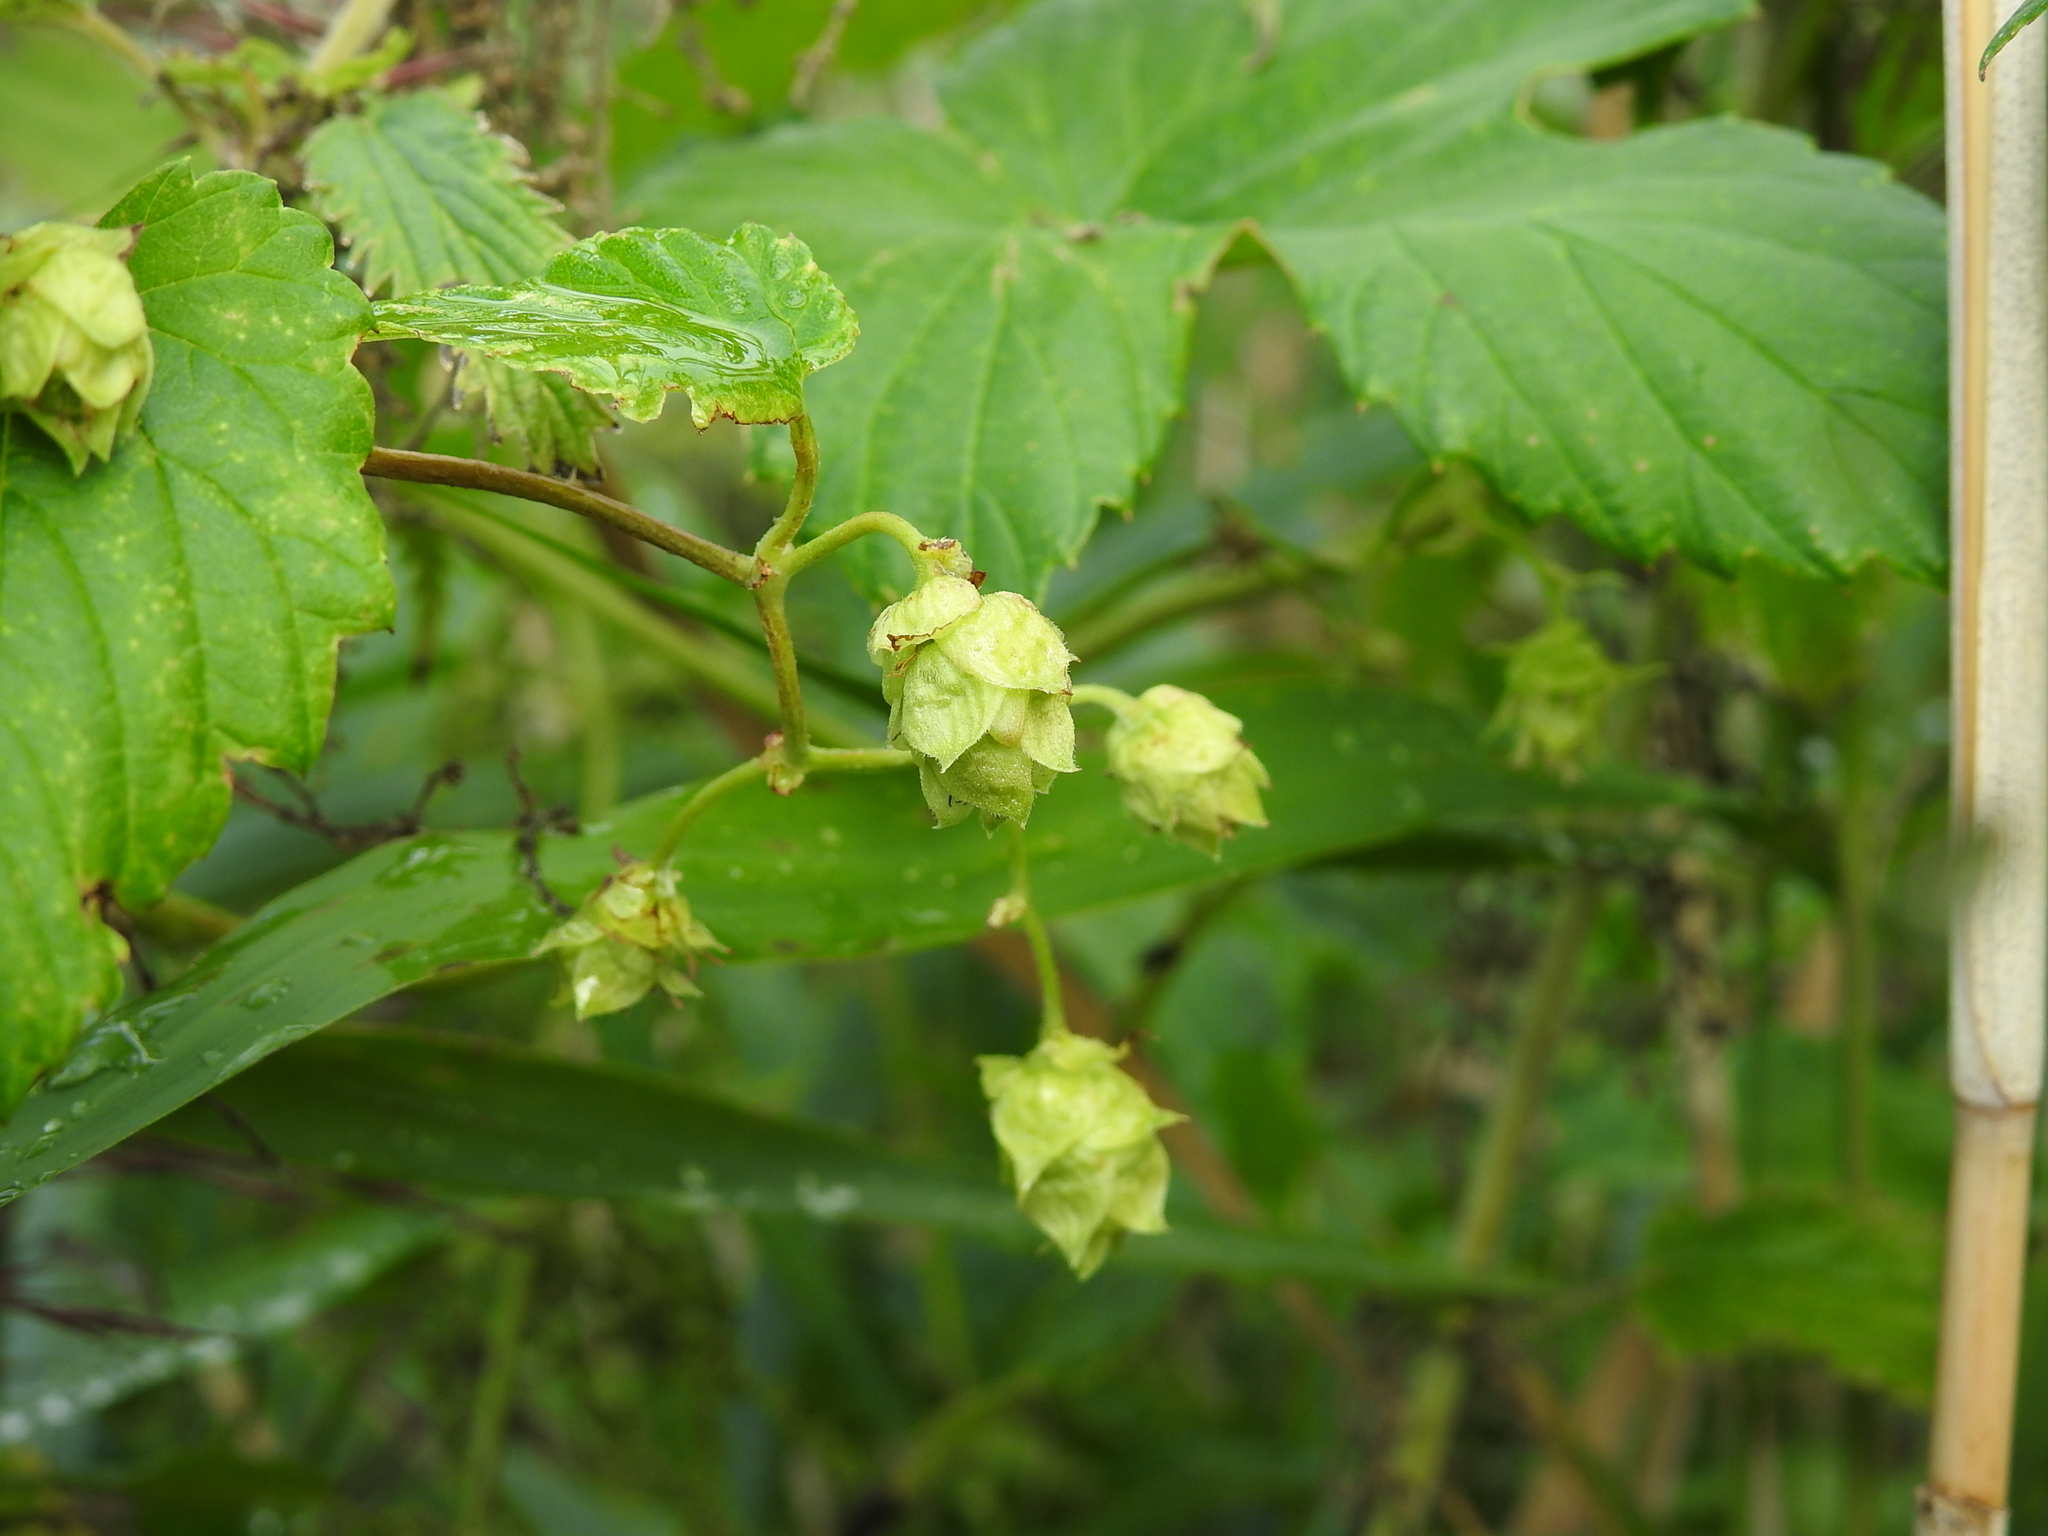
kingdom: Plantae
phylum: Tracheophyta
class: Magnoliopsida
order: Rosales
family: Cannabaceae
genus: Humulus
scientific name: Humulus lupulus
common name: Hop
